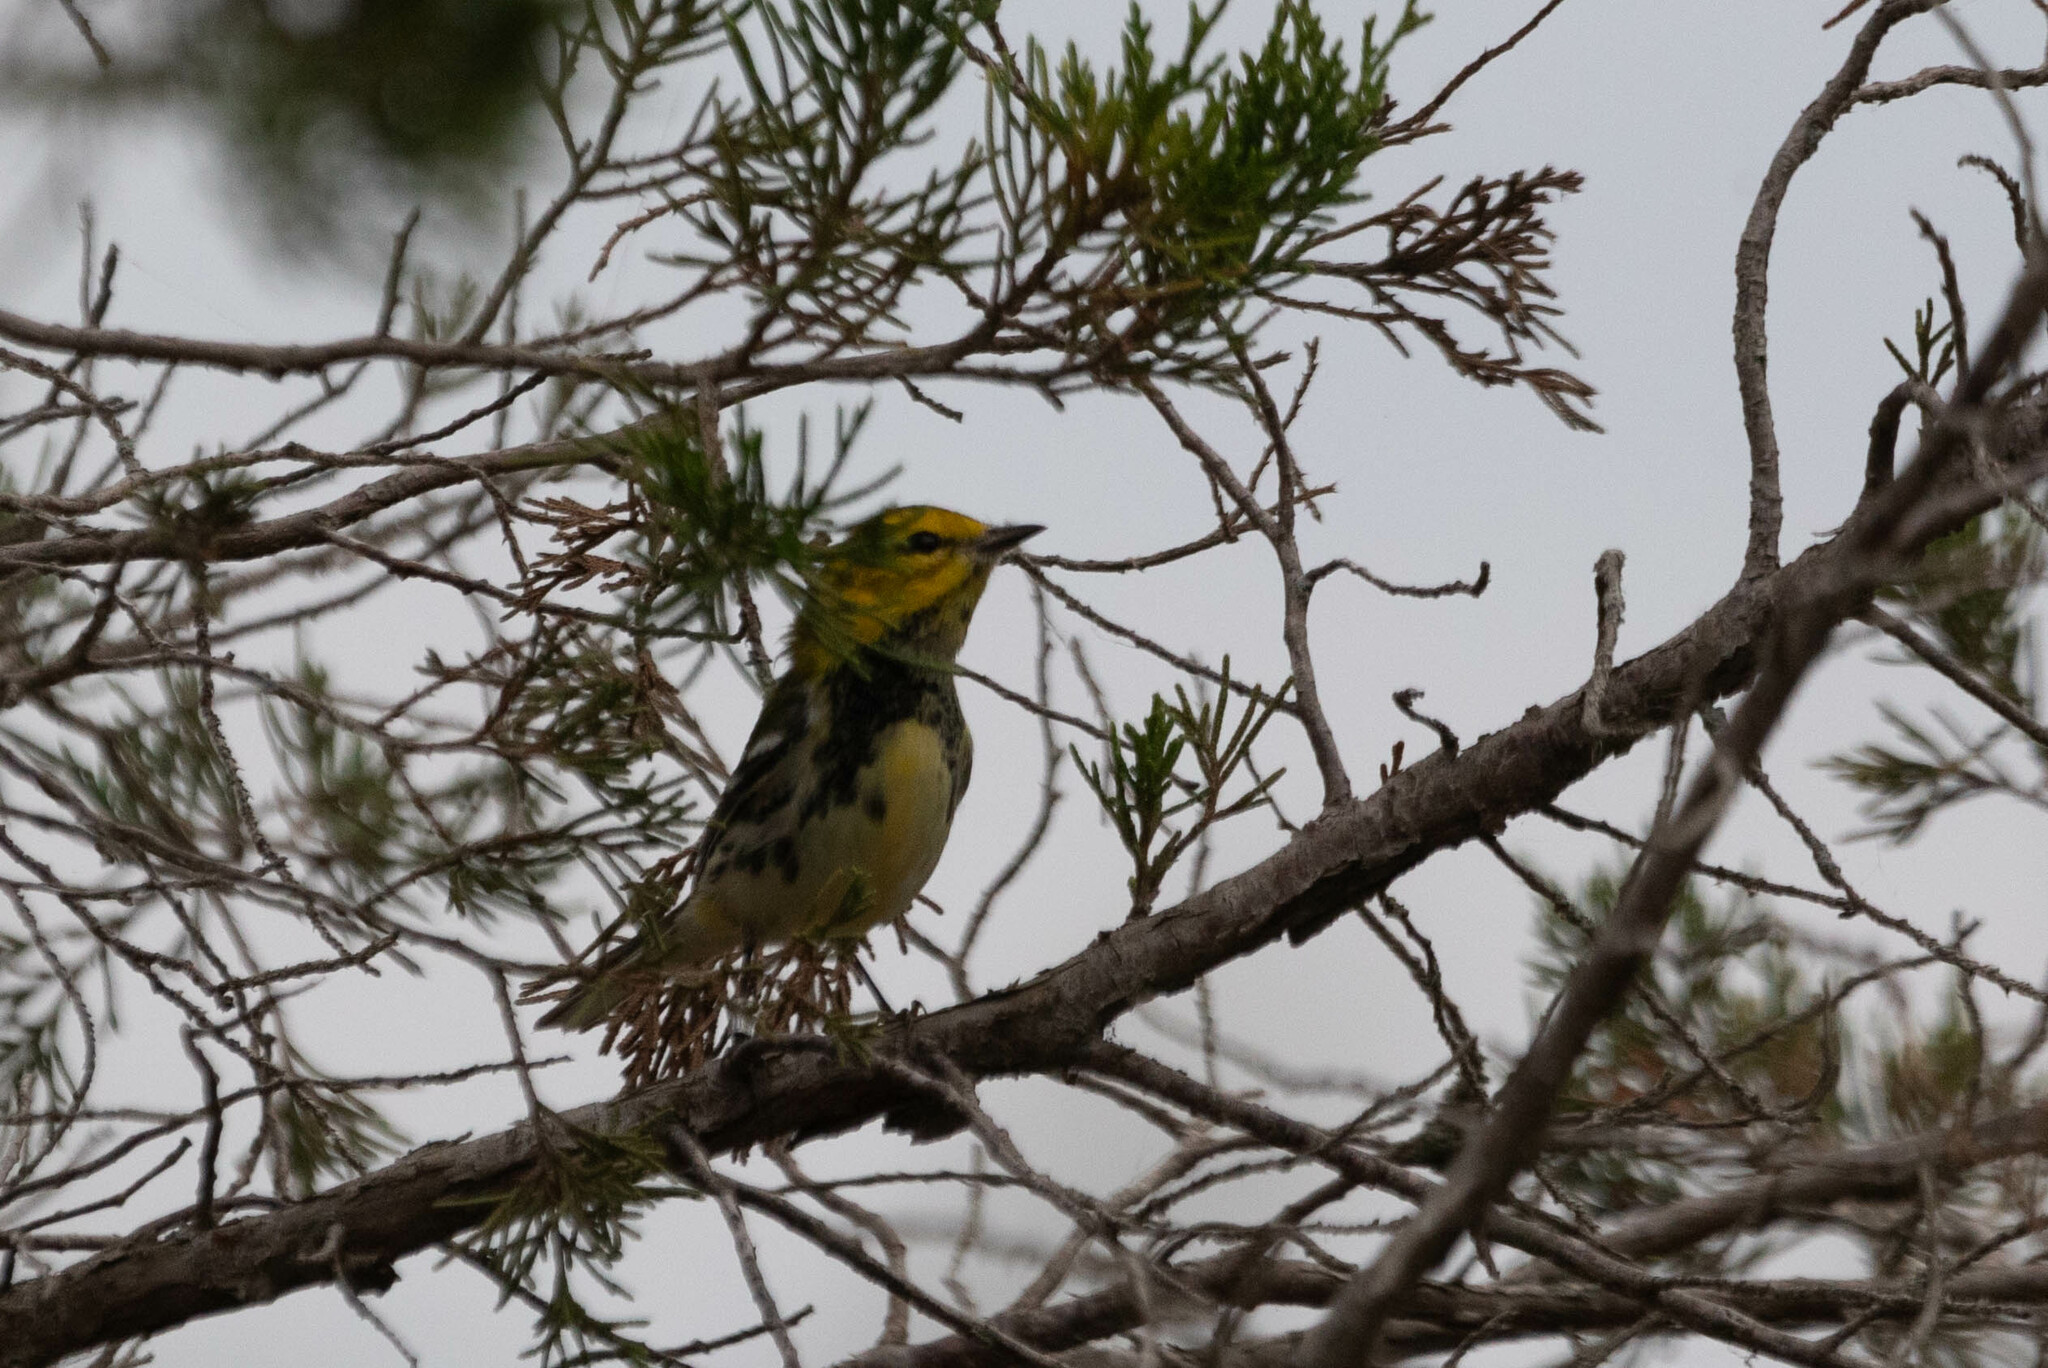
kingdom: Animalia
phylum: Chordata
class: Aves
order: Passeriformes
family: Parulidae
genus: Setophaga
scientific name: Setophaga virens
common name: Black-throated green warbler
